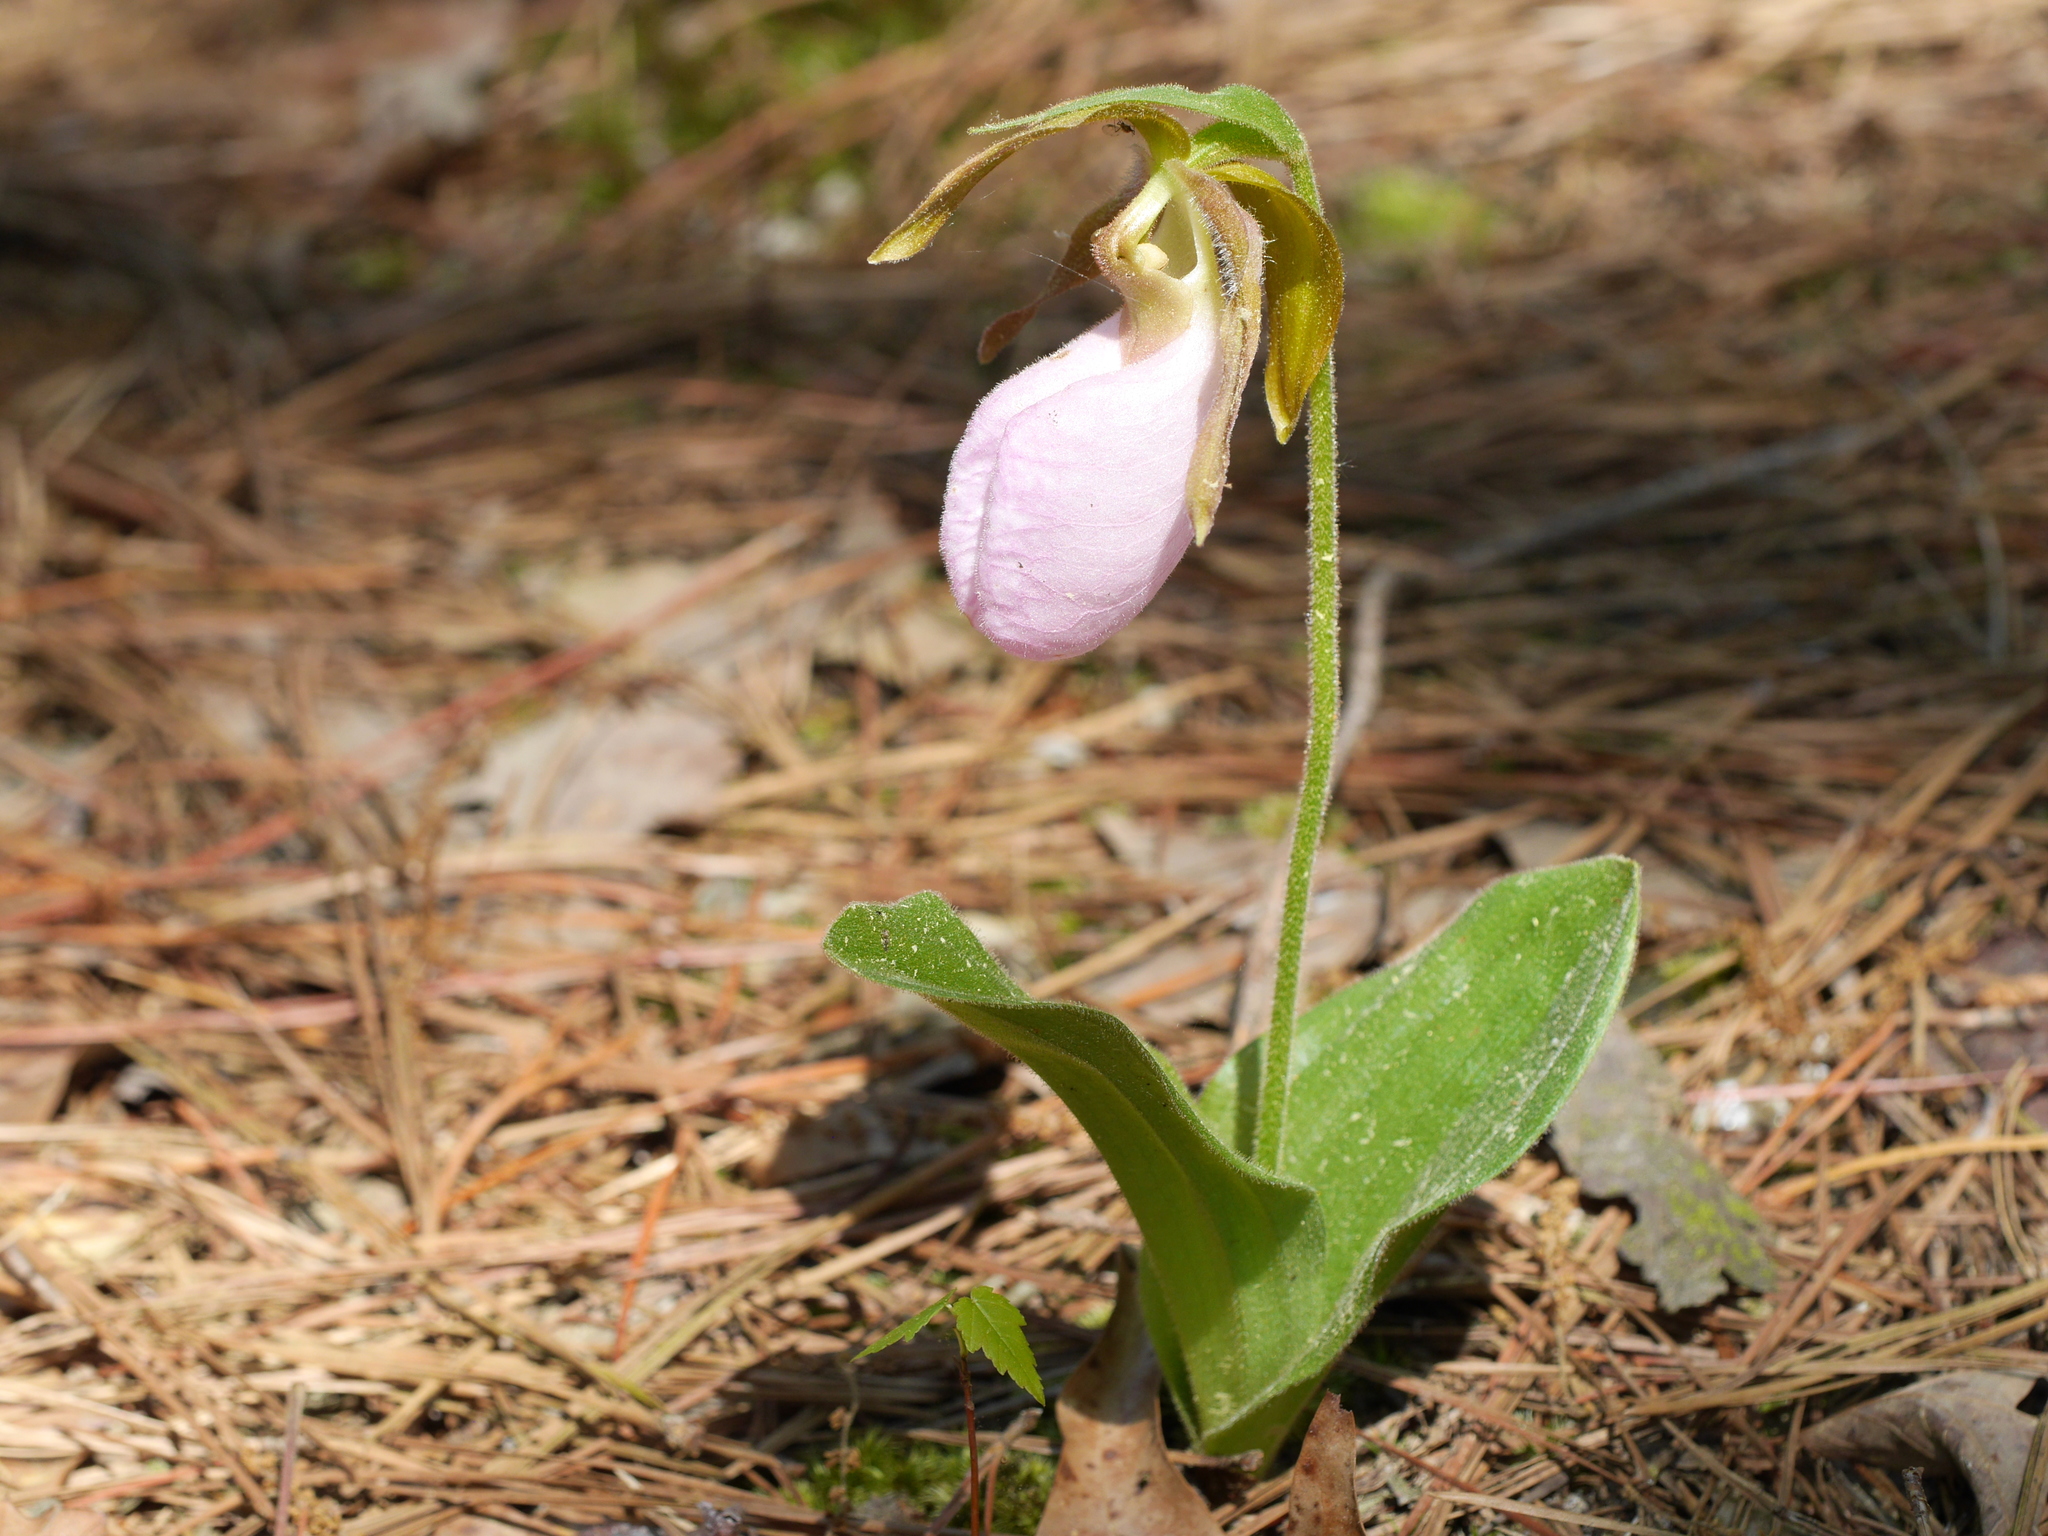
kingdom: Plantae
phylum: Tracheophyta
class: Liliopsida
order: Asparagales
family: Orchidaceae
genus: Cypripedium
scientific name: Cypripedium acaule
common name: Pink lady's-slipper
